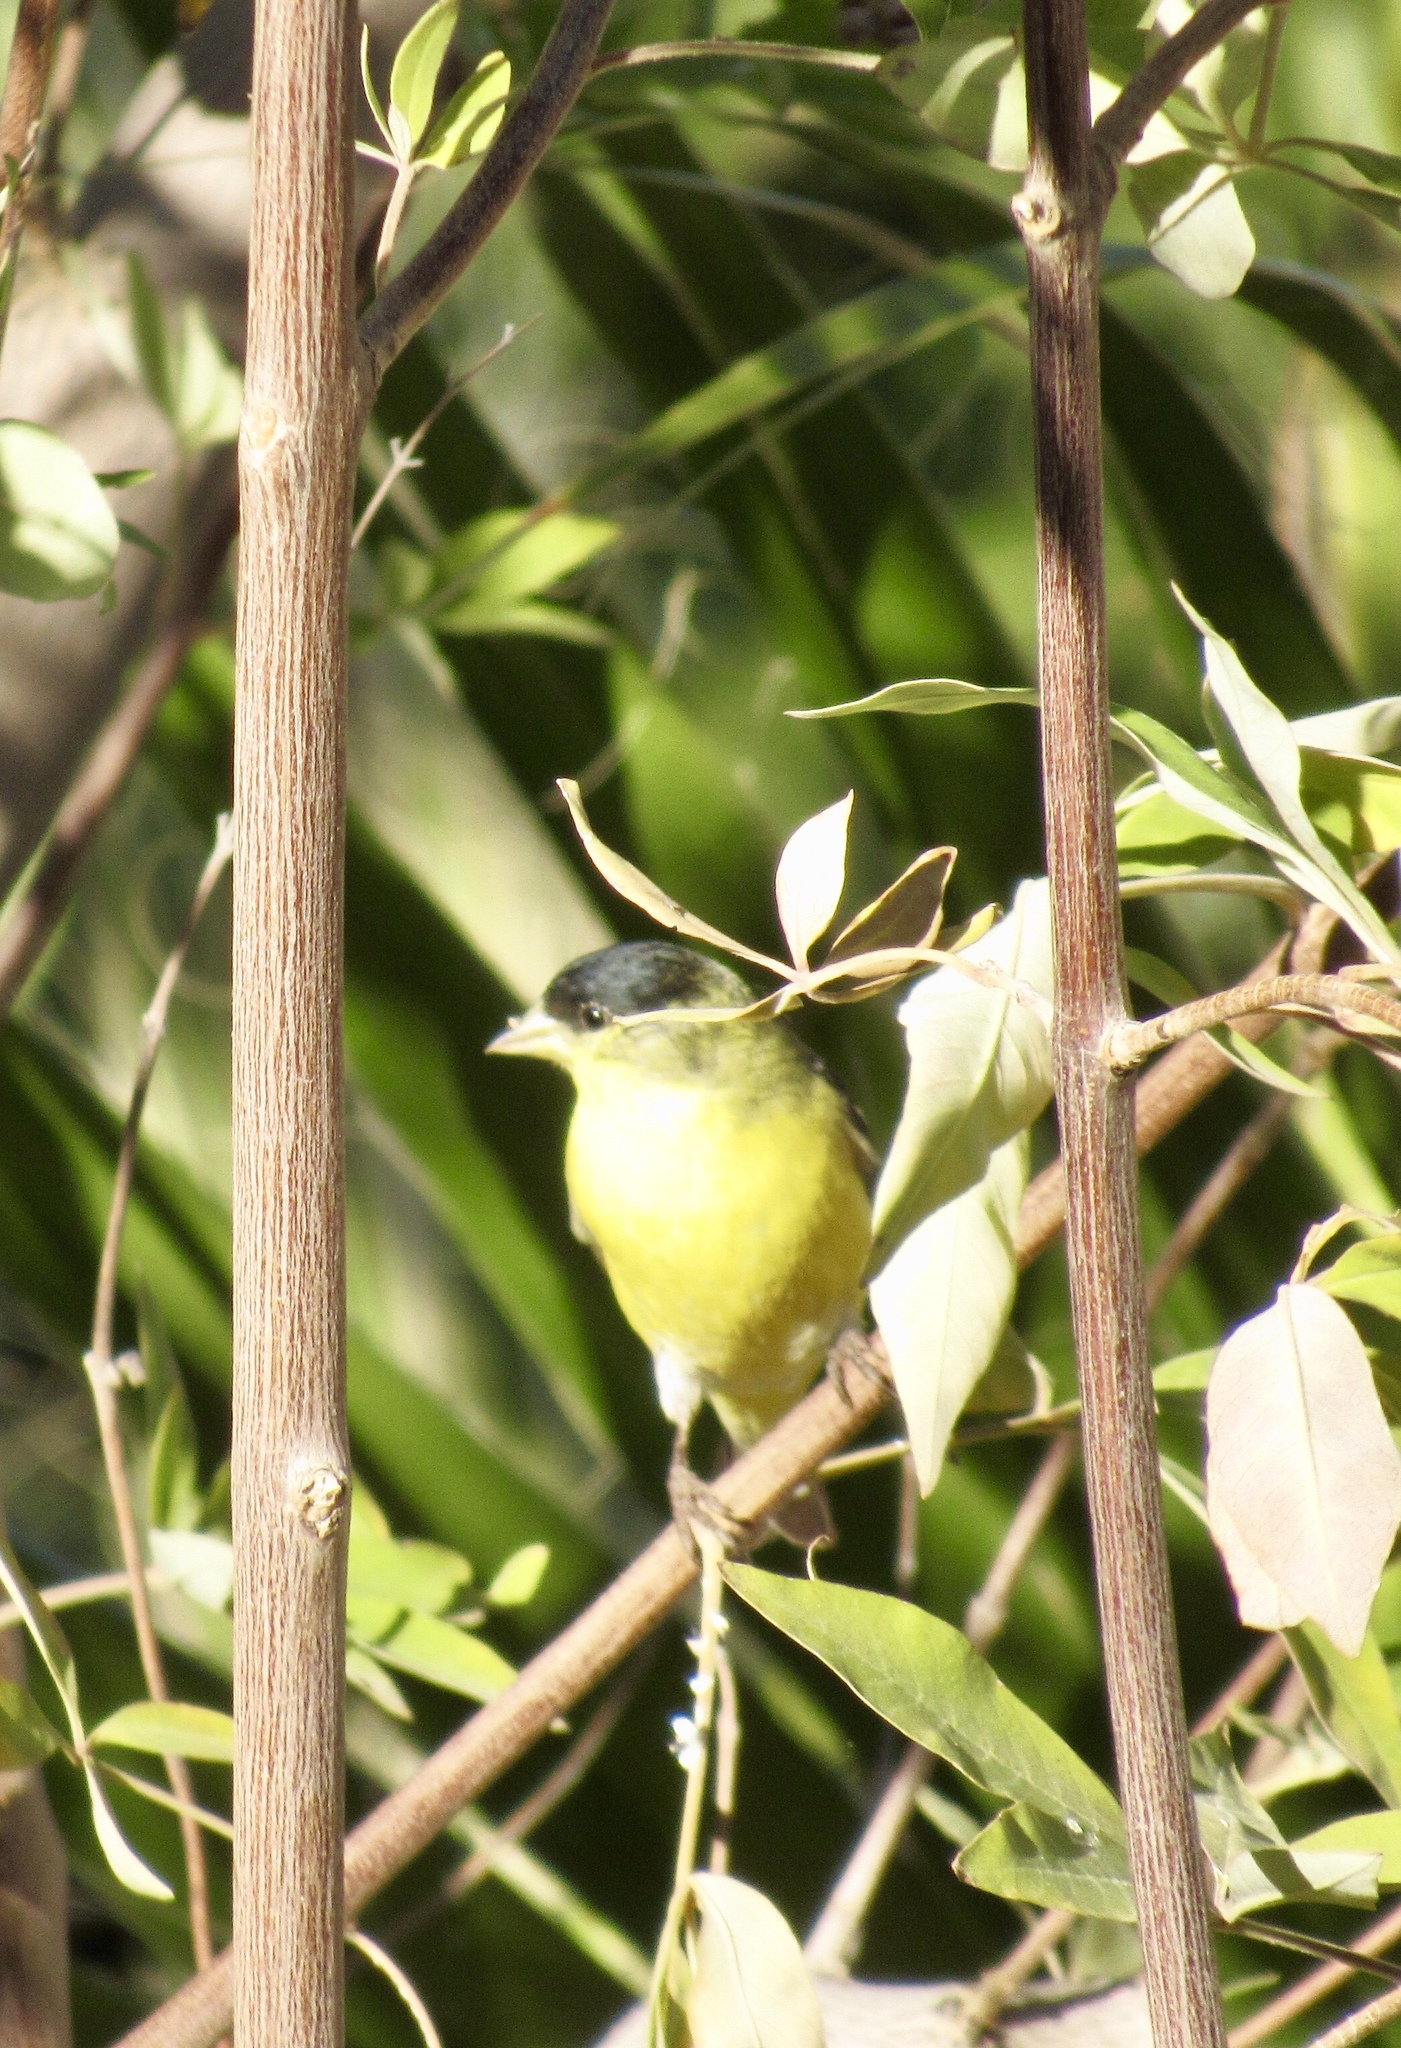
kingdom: Animalia
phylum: Chordata
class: Aves
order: Passeriformes
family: Fringillidae
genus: Spinus
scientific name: Spinus psaltria
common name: Lesser goldfinch
